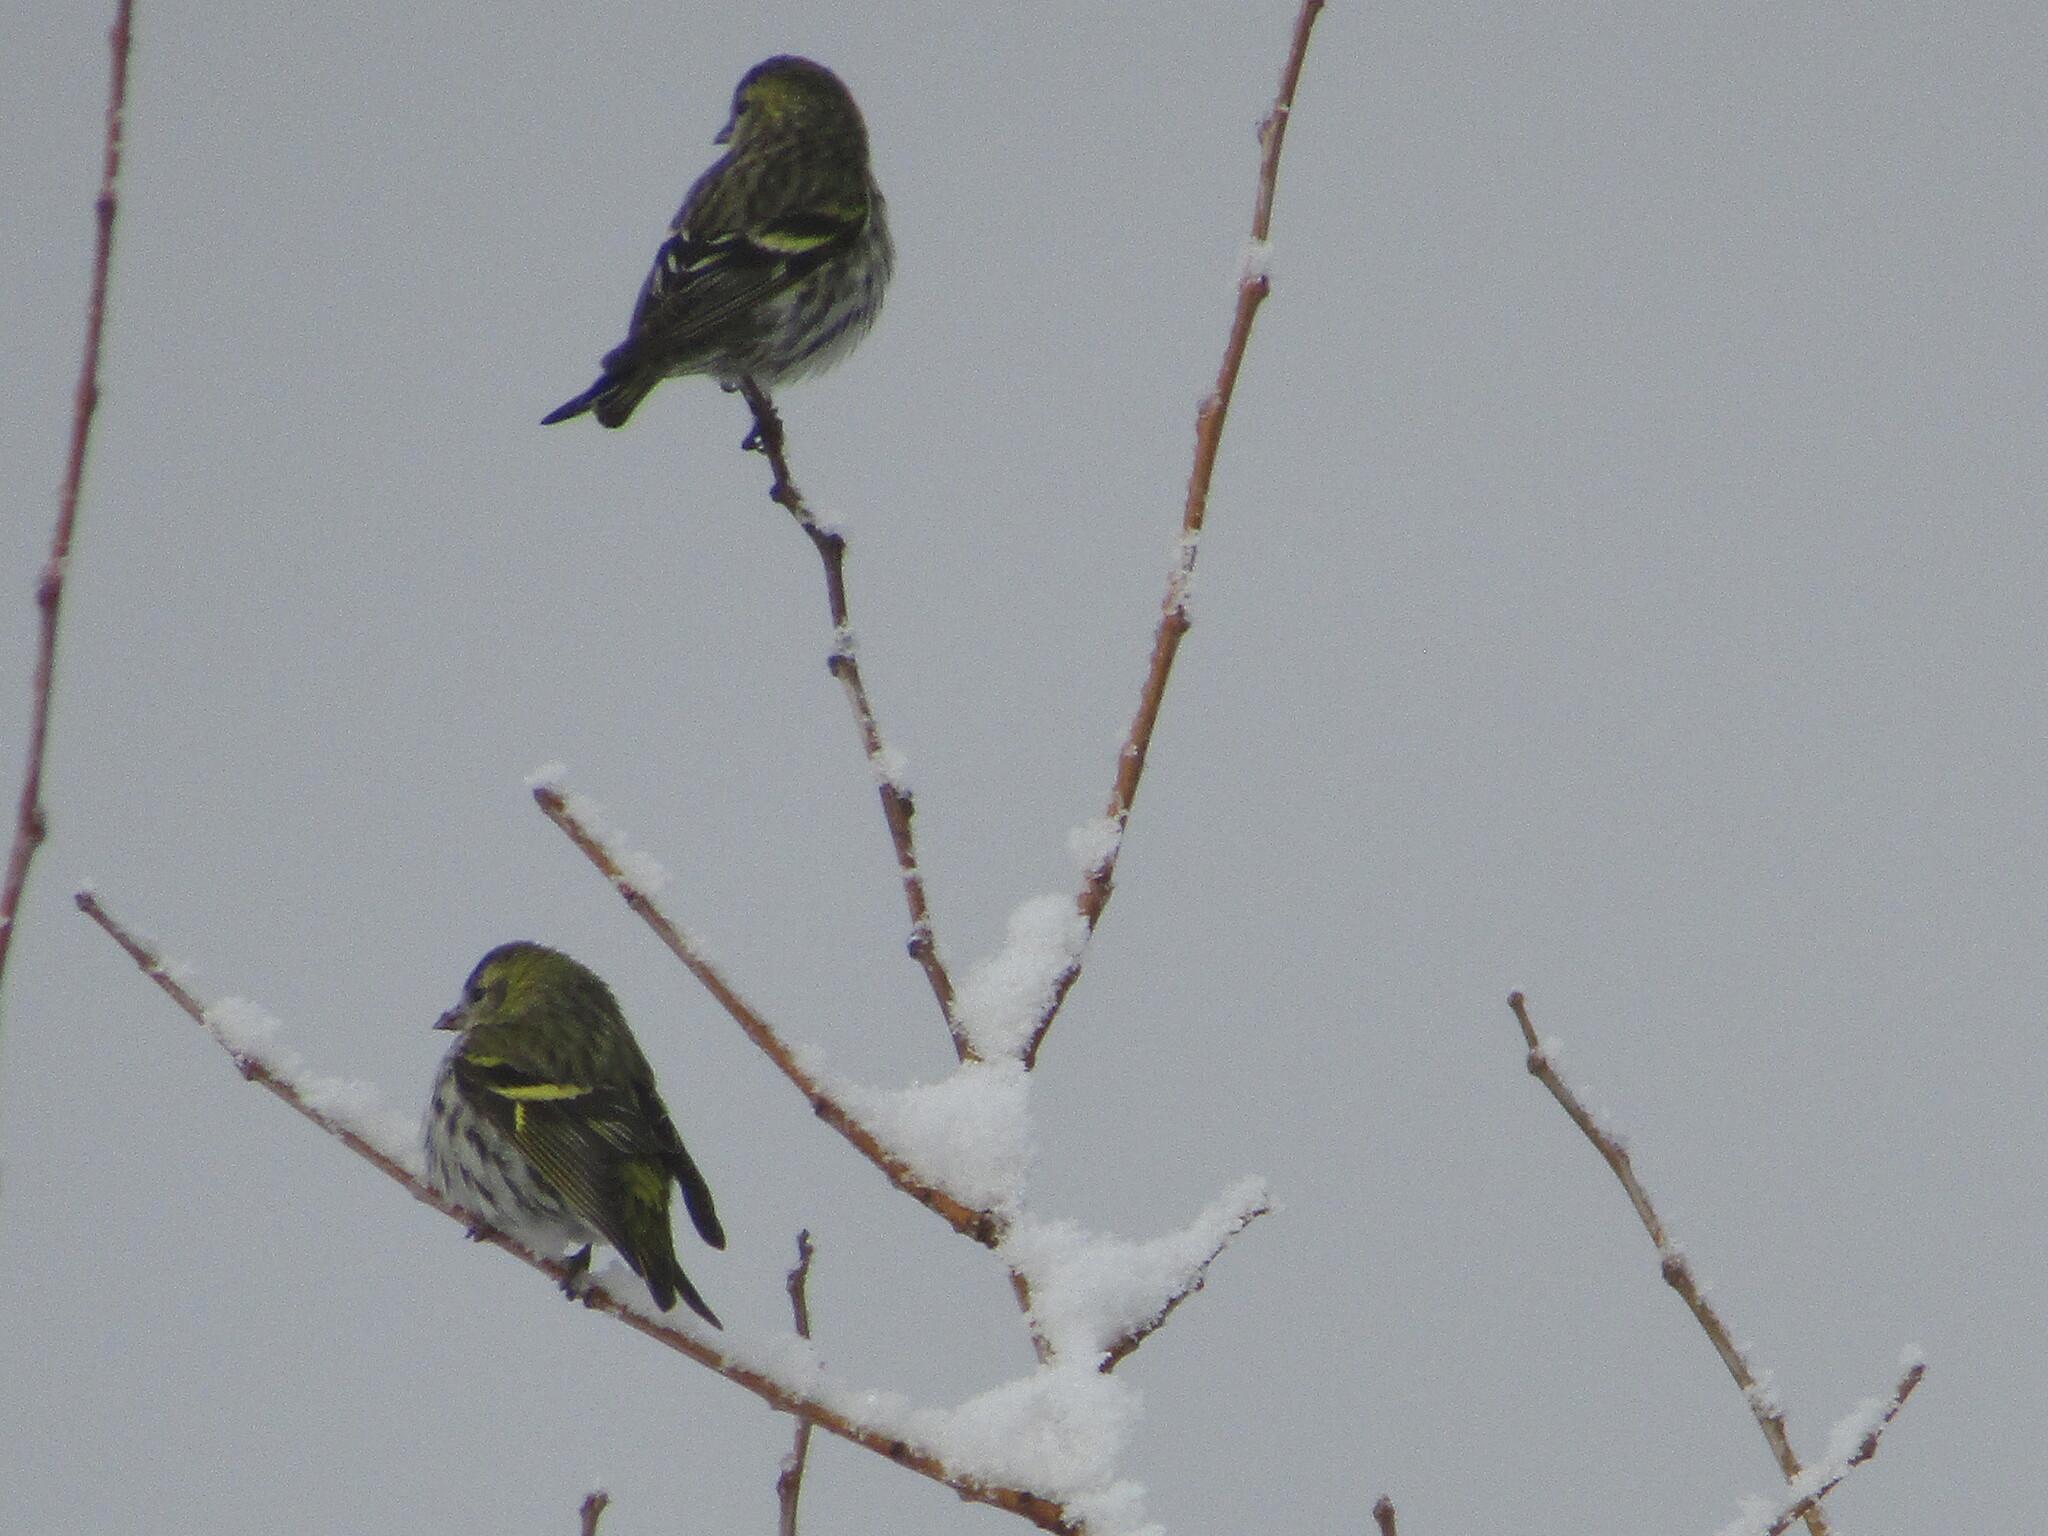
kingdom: Animalia
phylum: Chordata
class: Aves
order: Passeriformes
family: Fringillidae
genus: Spinus
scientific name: Spinus spinus
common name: Eurasian siskin
